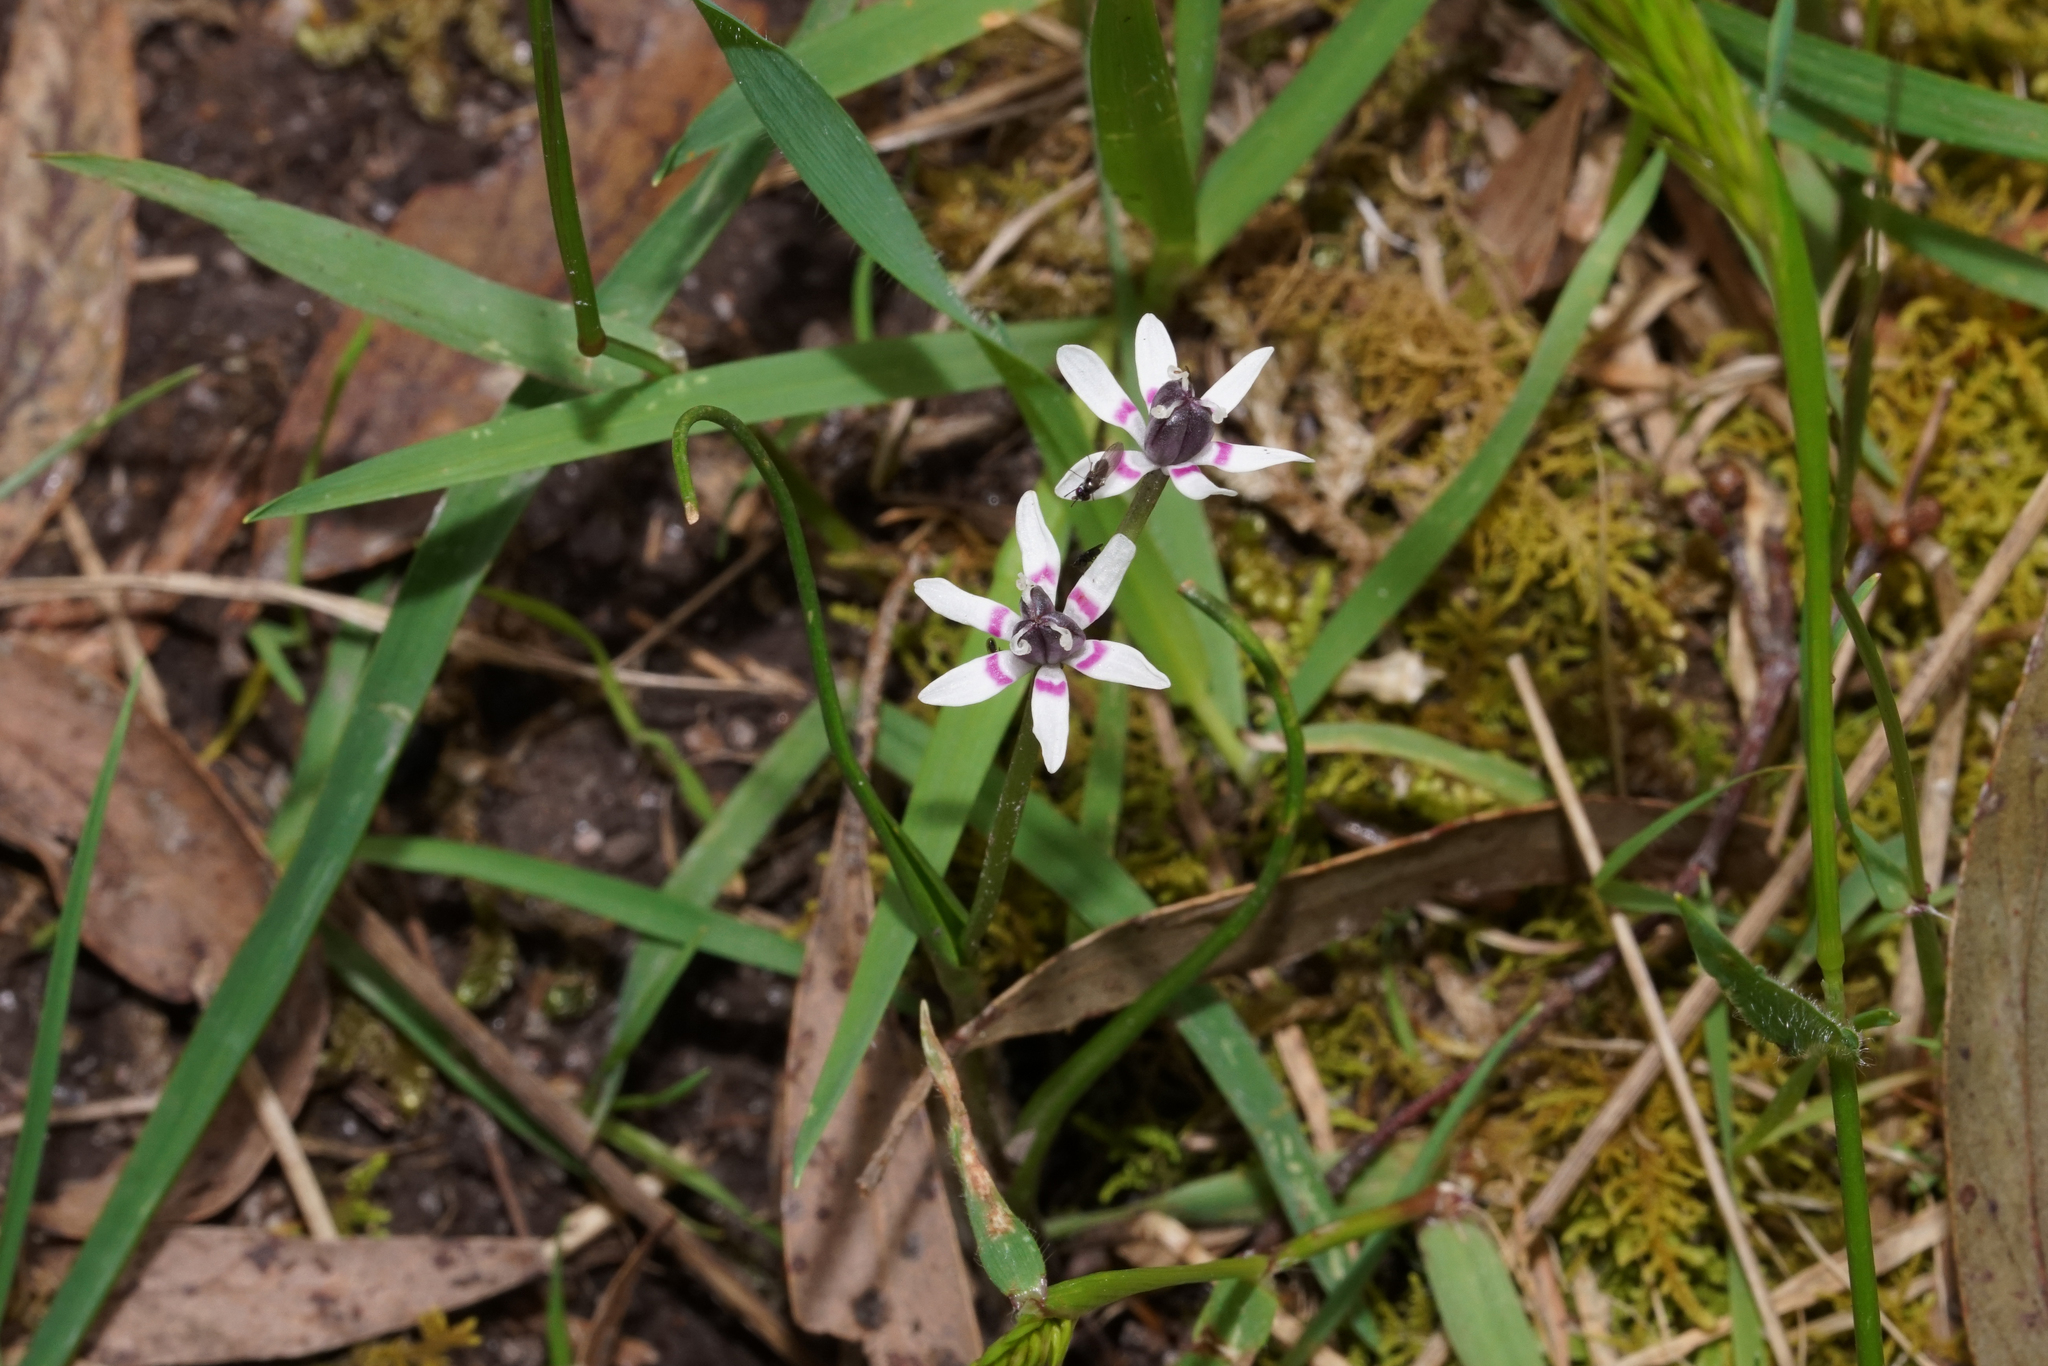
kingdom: Plantae
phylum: Tracheophyta
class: Liliopsida
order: Liliales
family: Colchicaceae
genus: Wurmbea
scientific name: Wurmbea dioica
